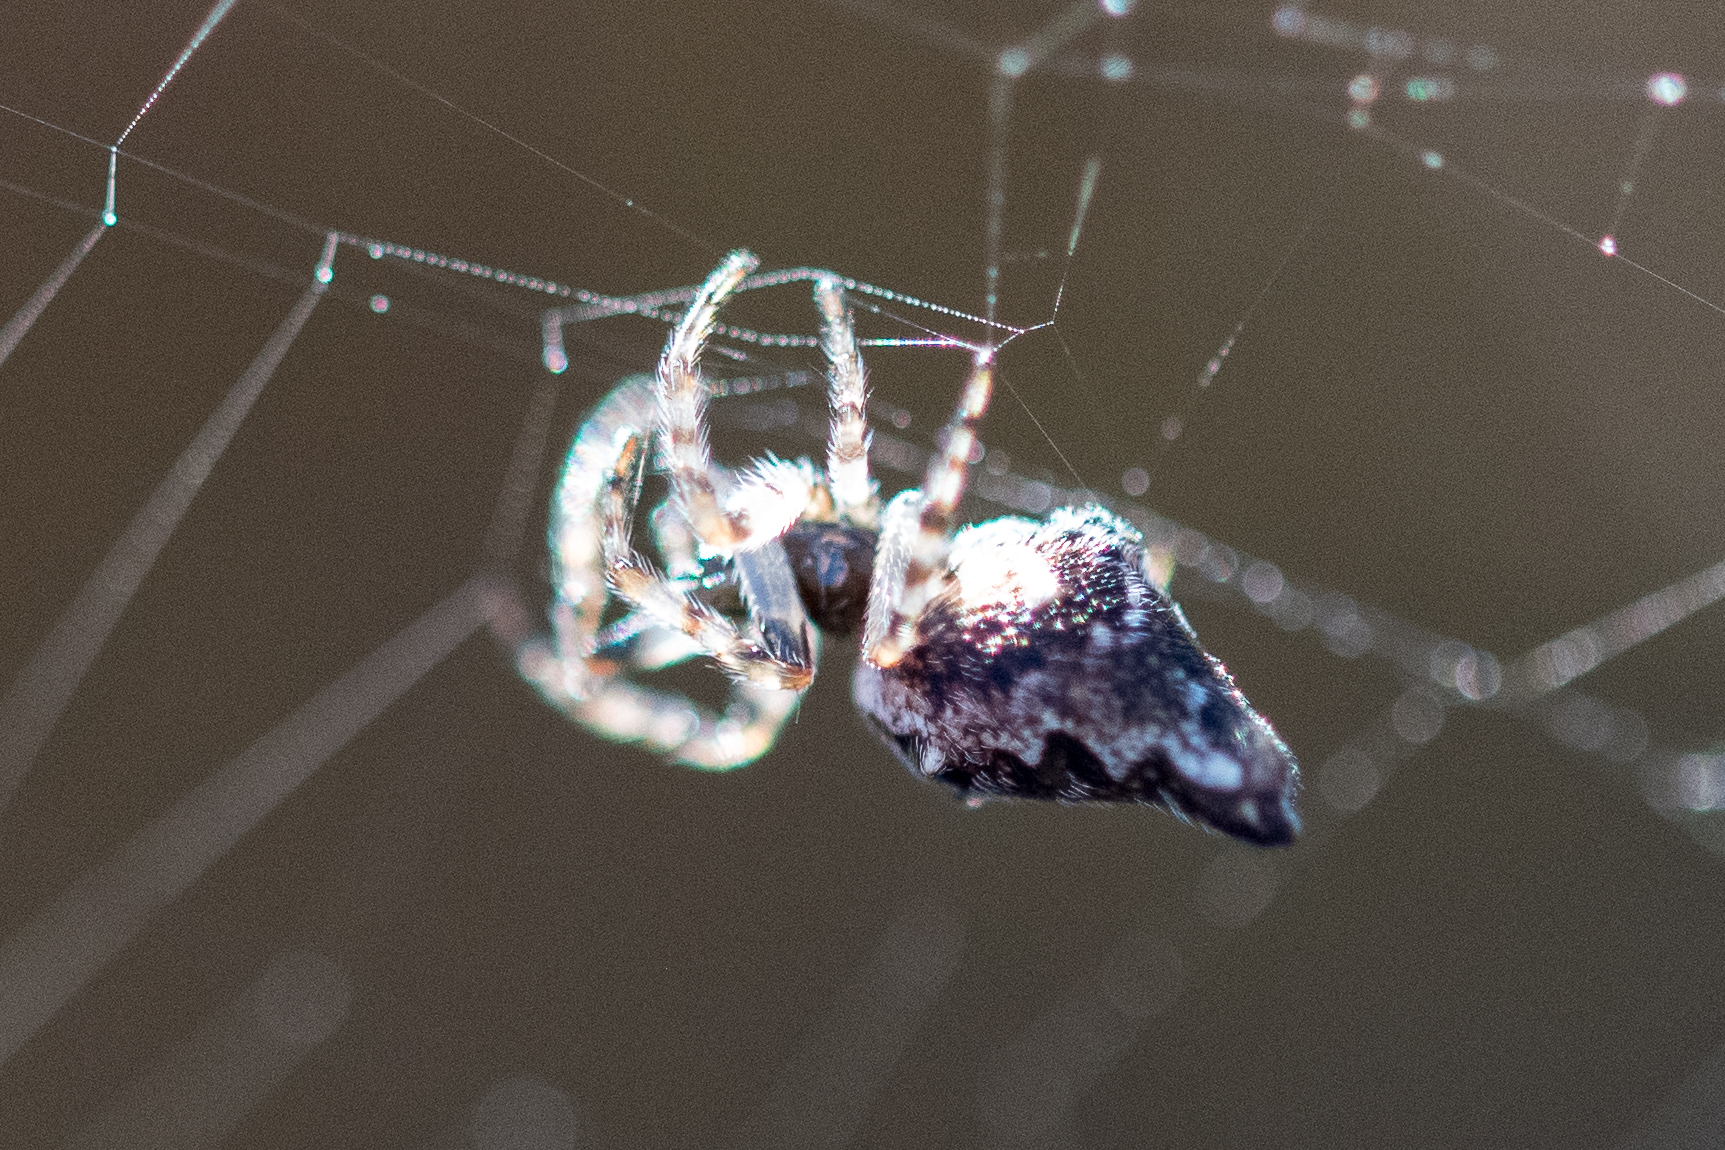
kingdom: Animalia
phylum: Arthropoda
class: Arachnida
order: Araneae
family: Araneidae
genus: Cyclosa
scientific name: Cyclosa oculata
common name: Trashline orbweaver
